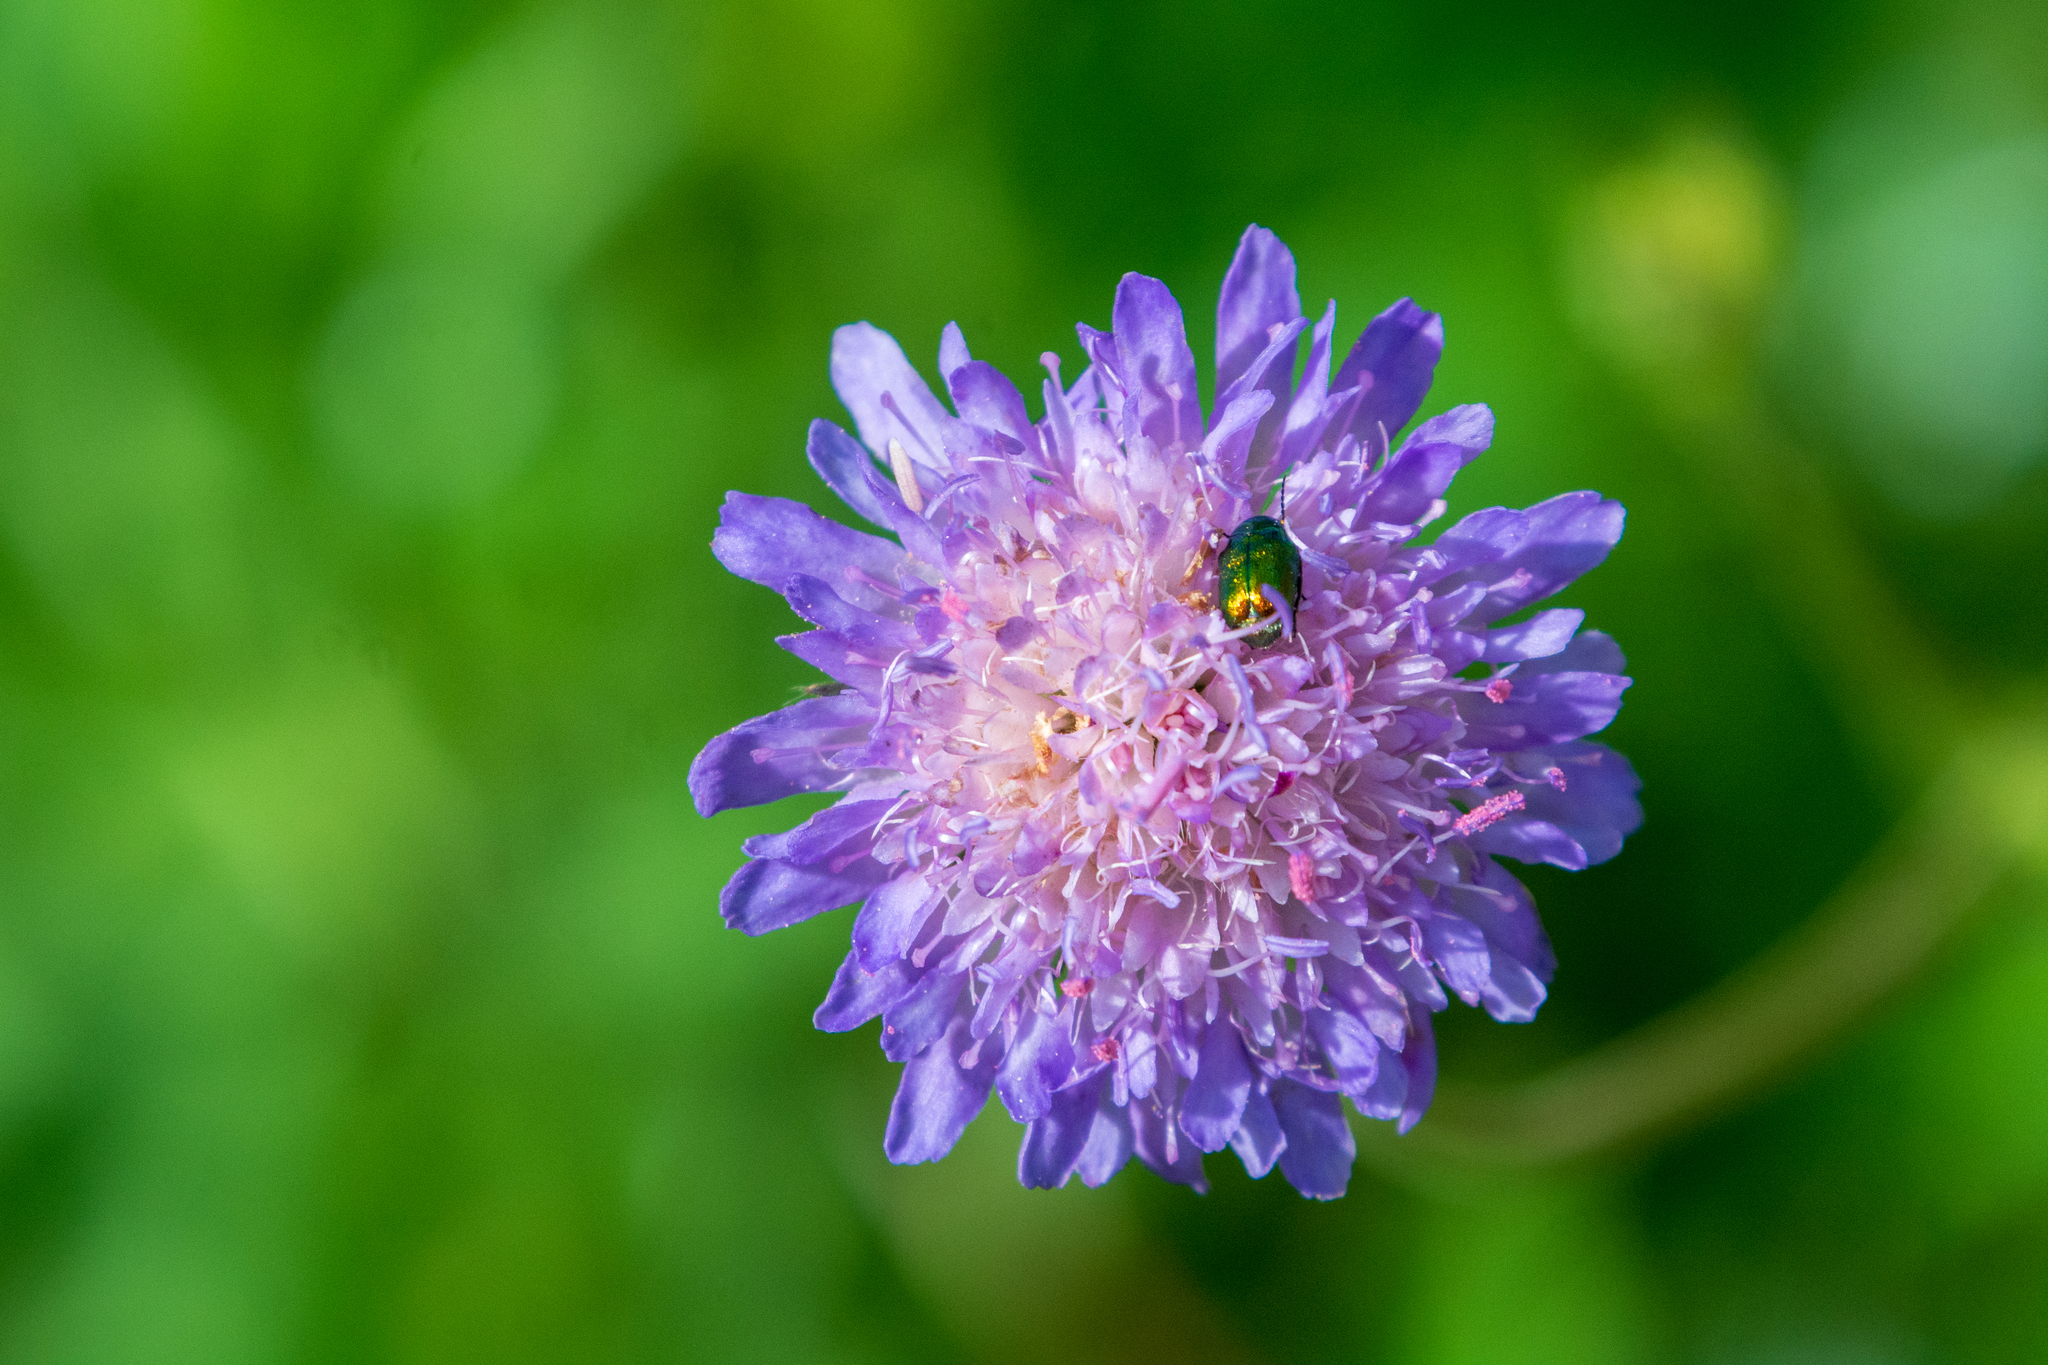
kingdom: Plantae
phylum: Tracheophyta
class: Magnoliopsida
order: Dipsacales
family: Caprifoliaceae
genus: Knautia
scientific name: Knautia arvensis
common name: Field scabiosa
